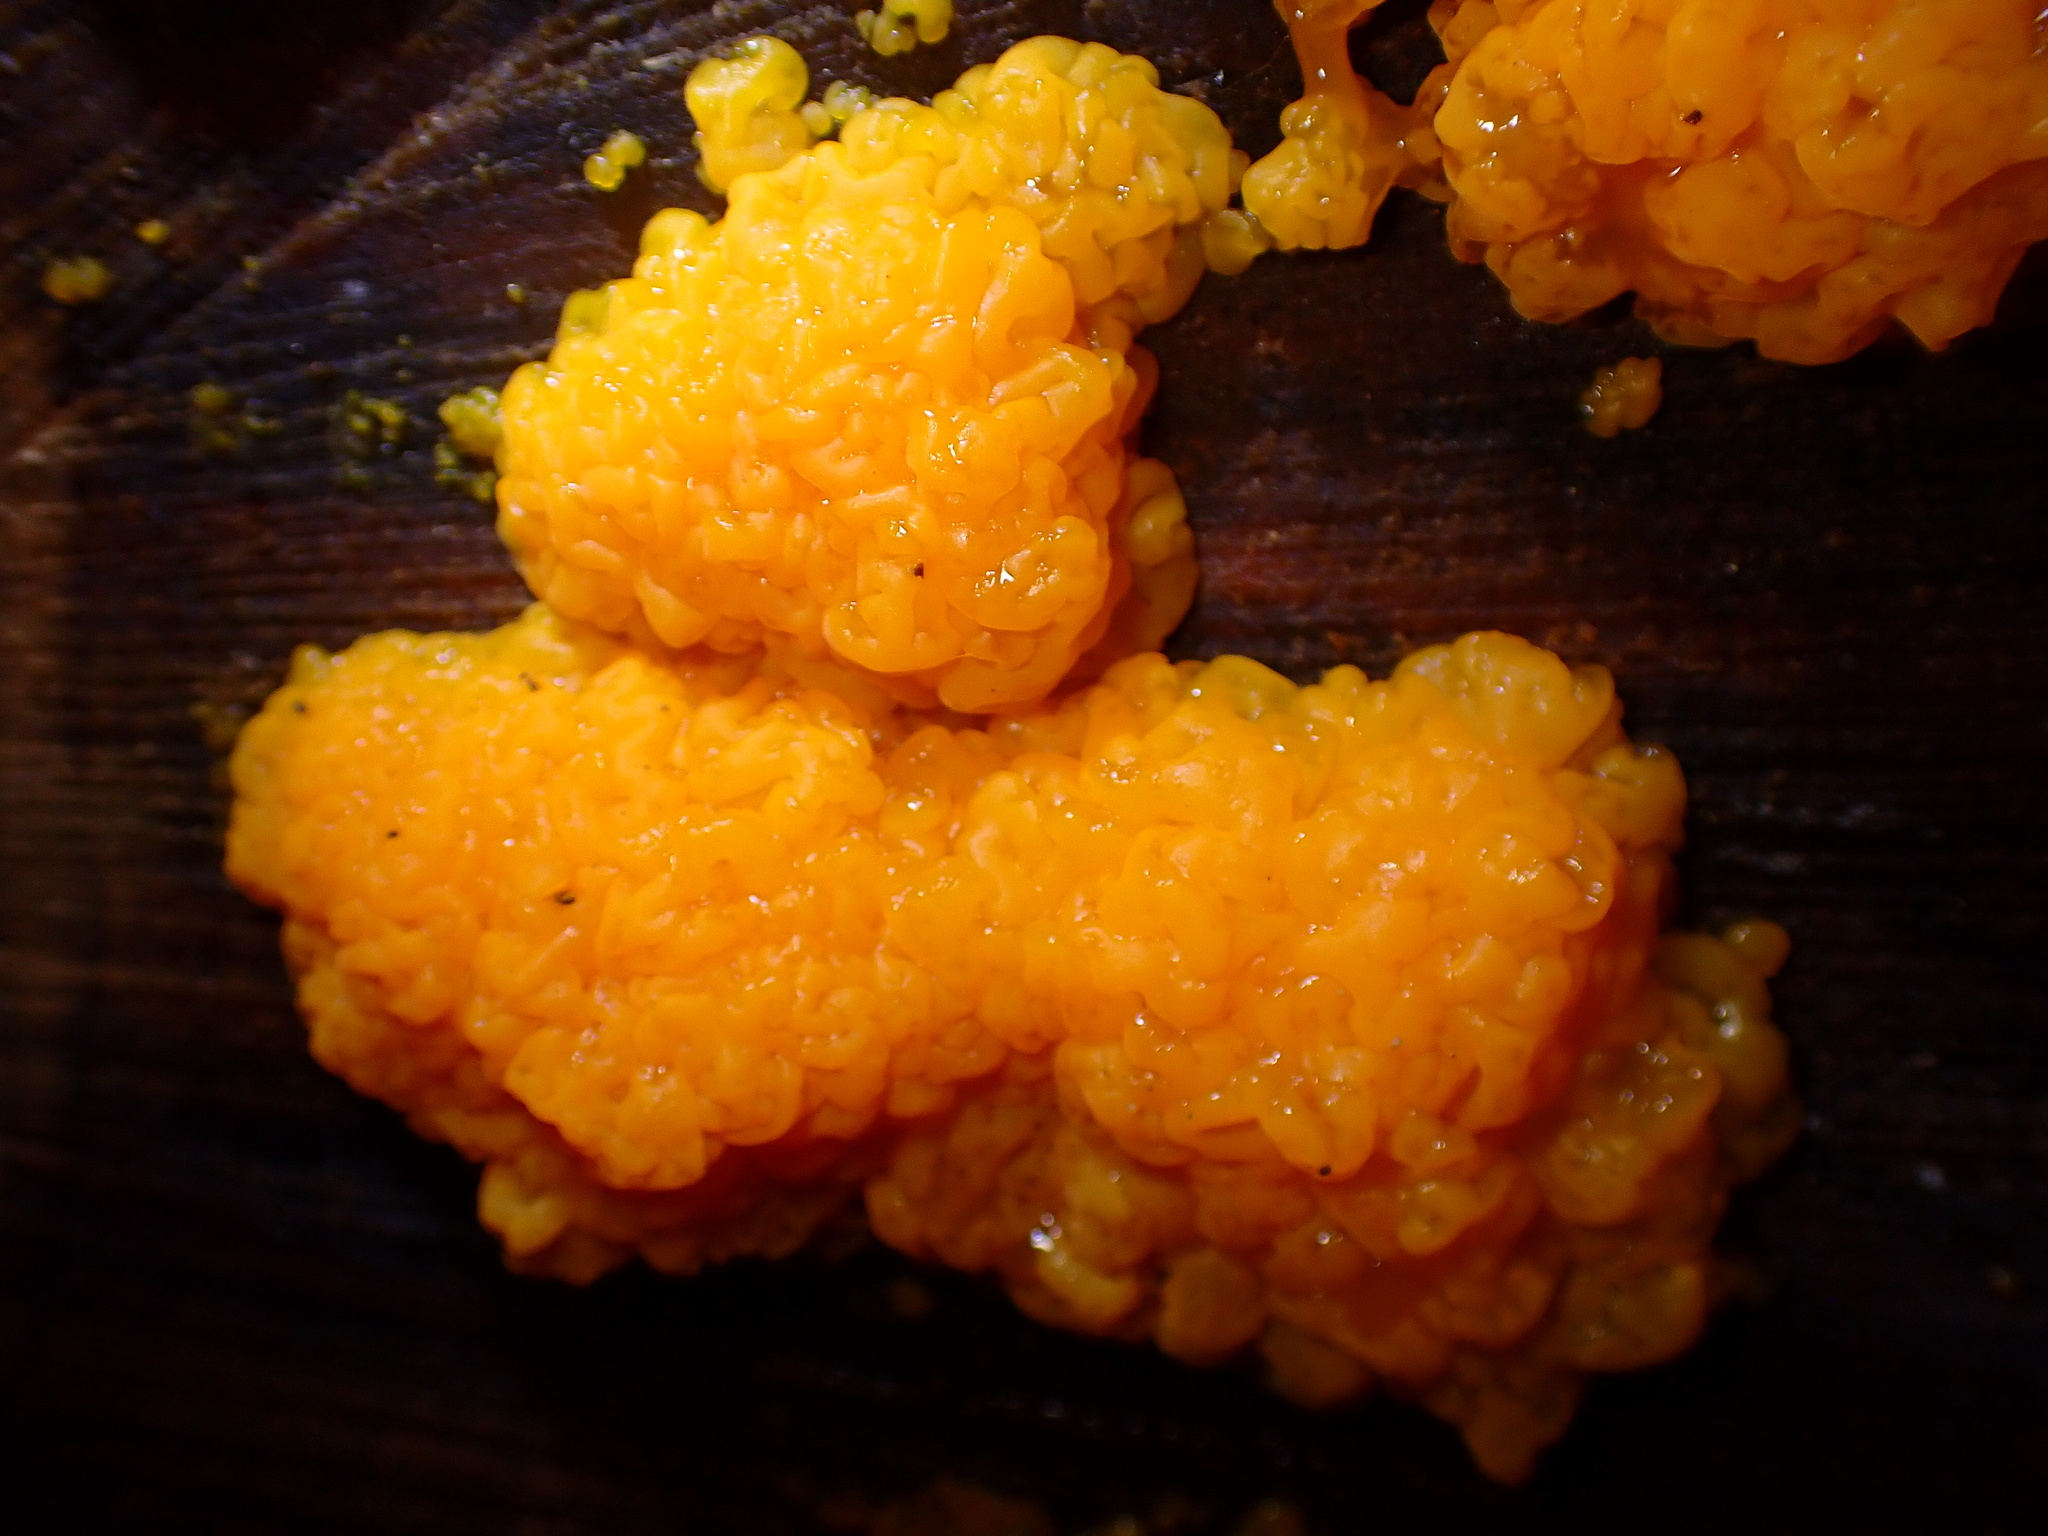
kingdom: Fungi
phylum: Basidiomycota
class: Dacrymycetes
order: Dacrymycetales
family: Dacrymycetaceae
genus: Dacrymyces
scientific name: Dacrymyces chrysospermus
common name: Orange jelly spot
